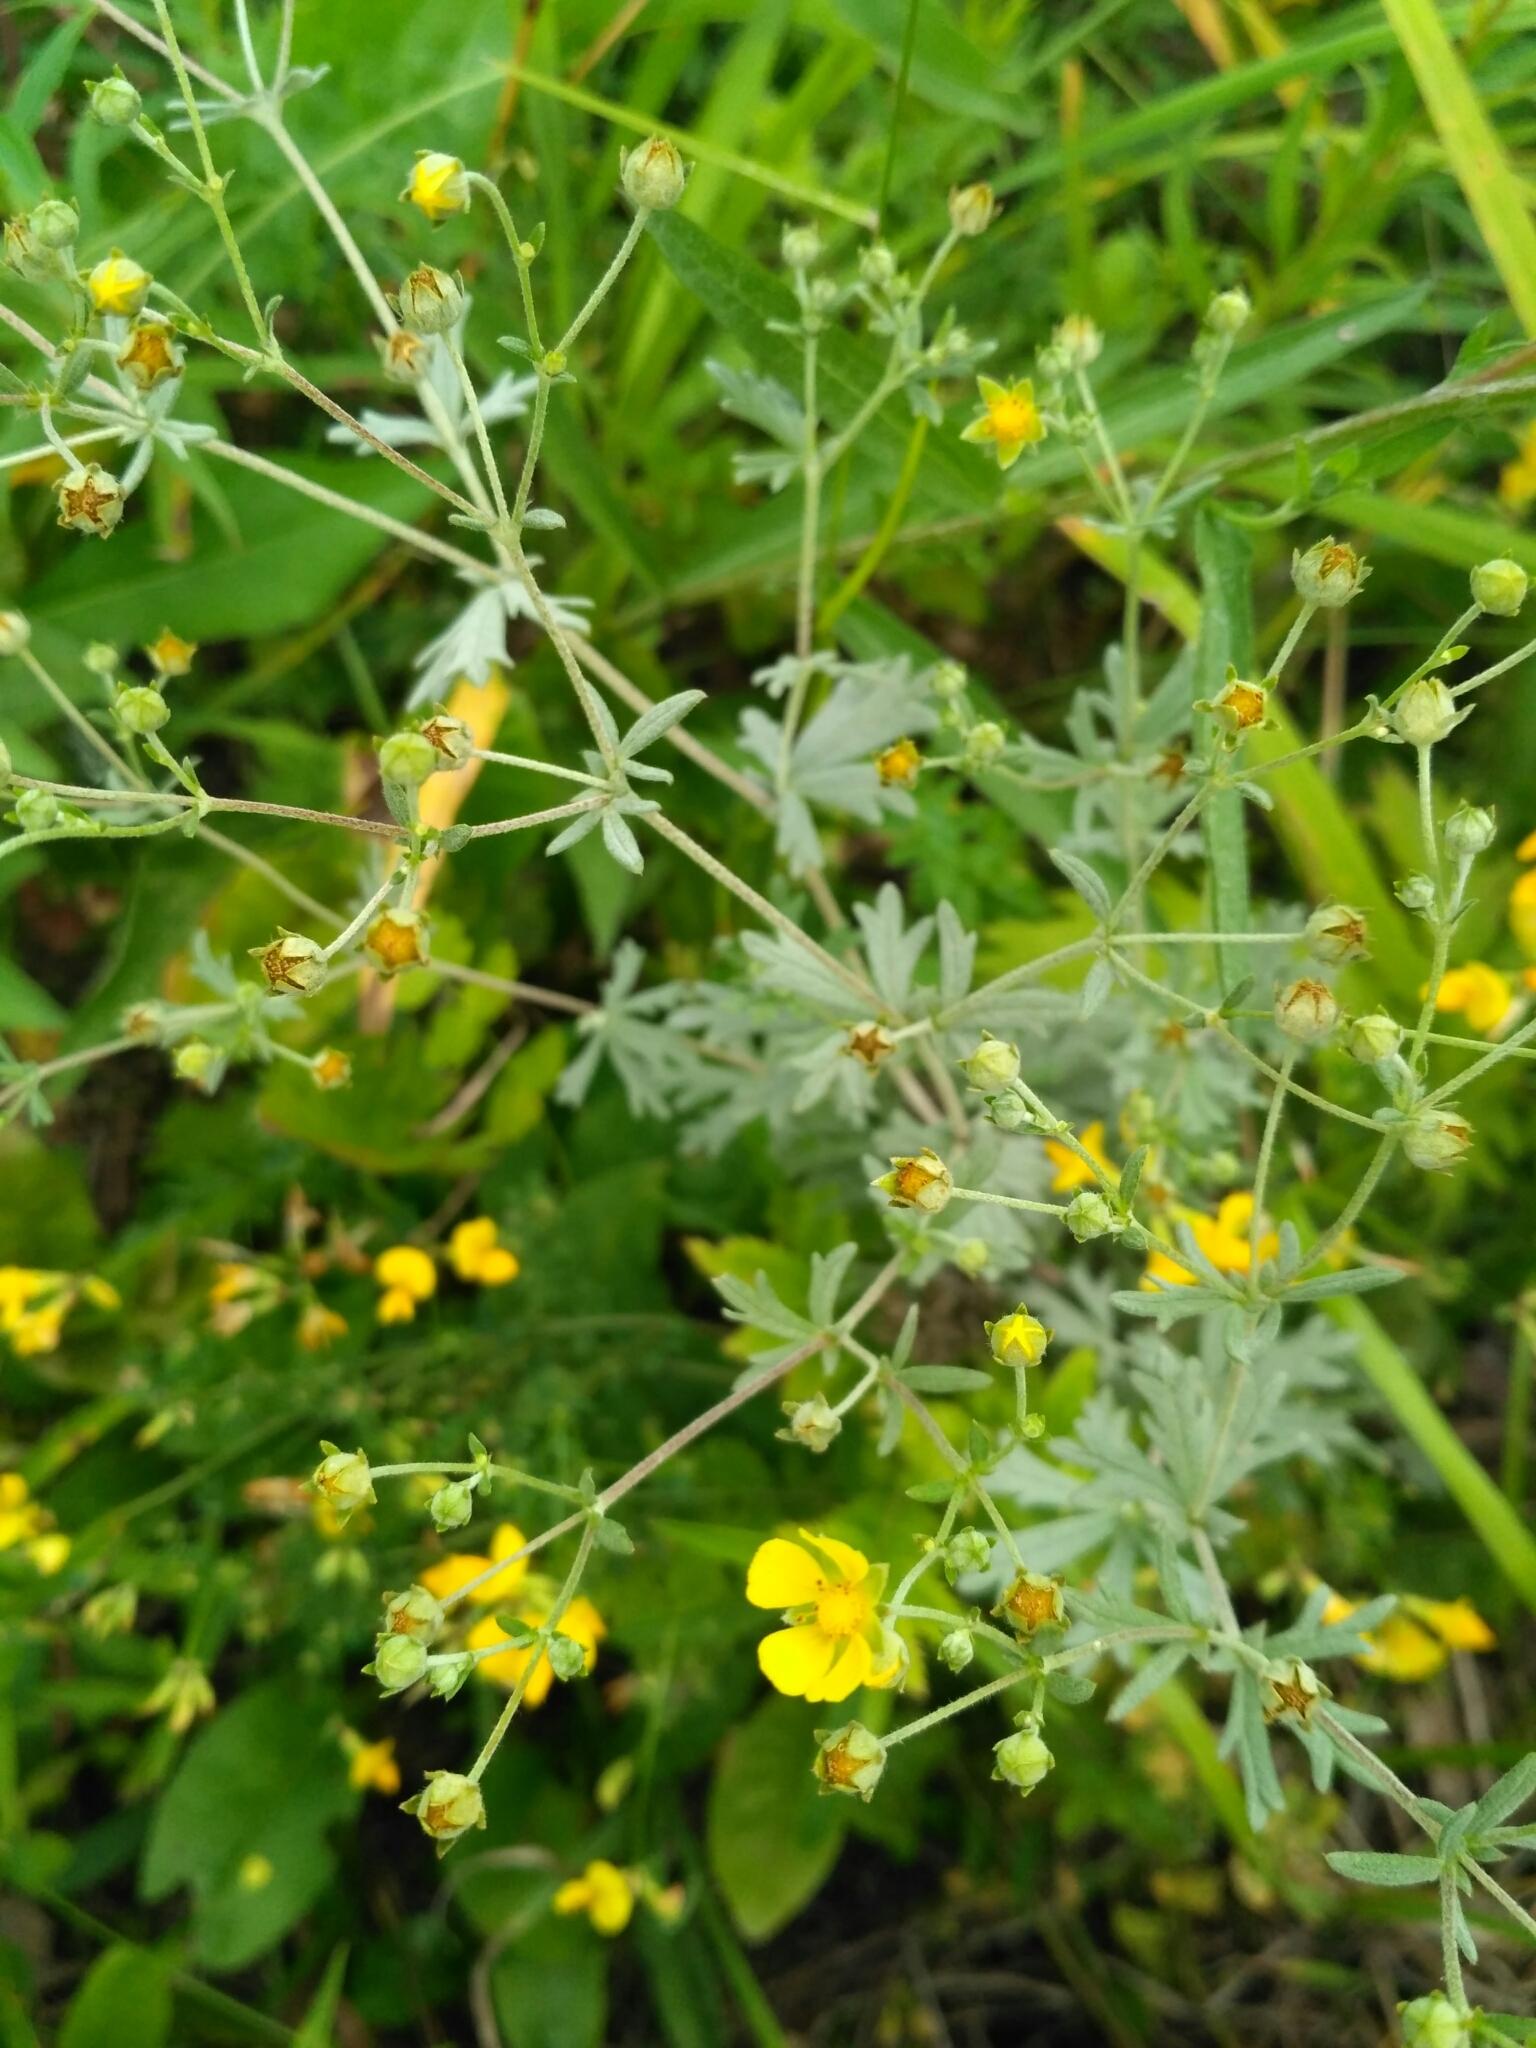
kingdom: Plantae
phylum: Tracheophyta
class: Magnoliopsida
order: Rosales
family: Rosaceae
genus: Potentilla
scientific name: Potentilla argentea
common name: Hoary cinquefoil
